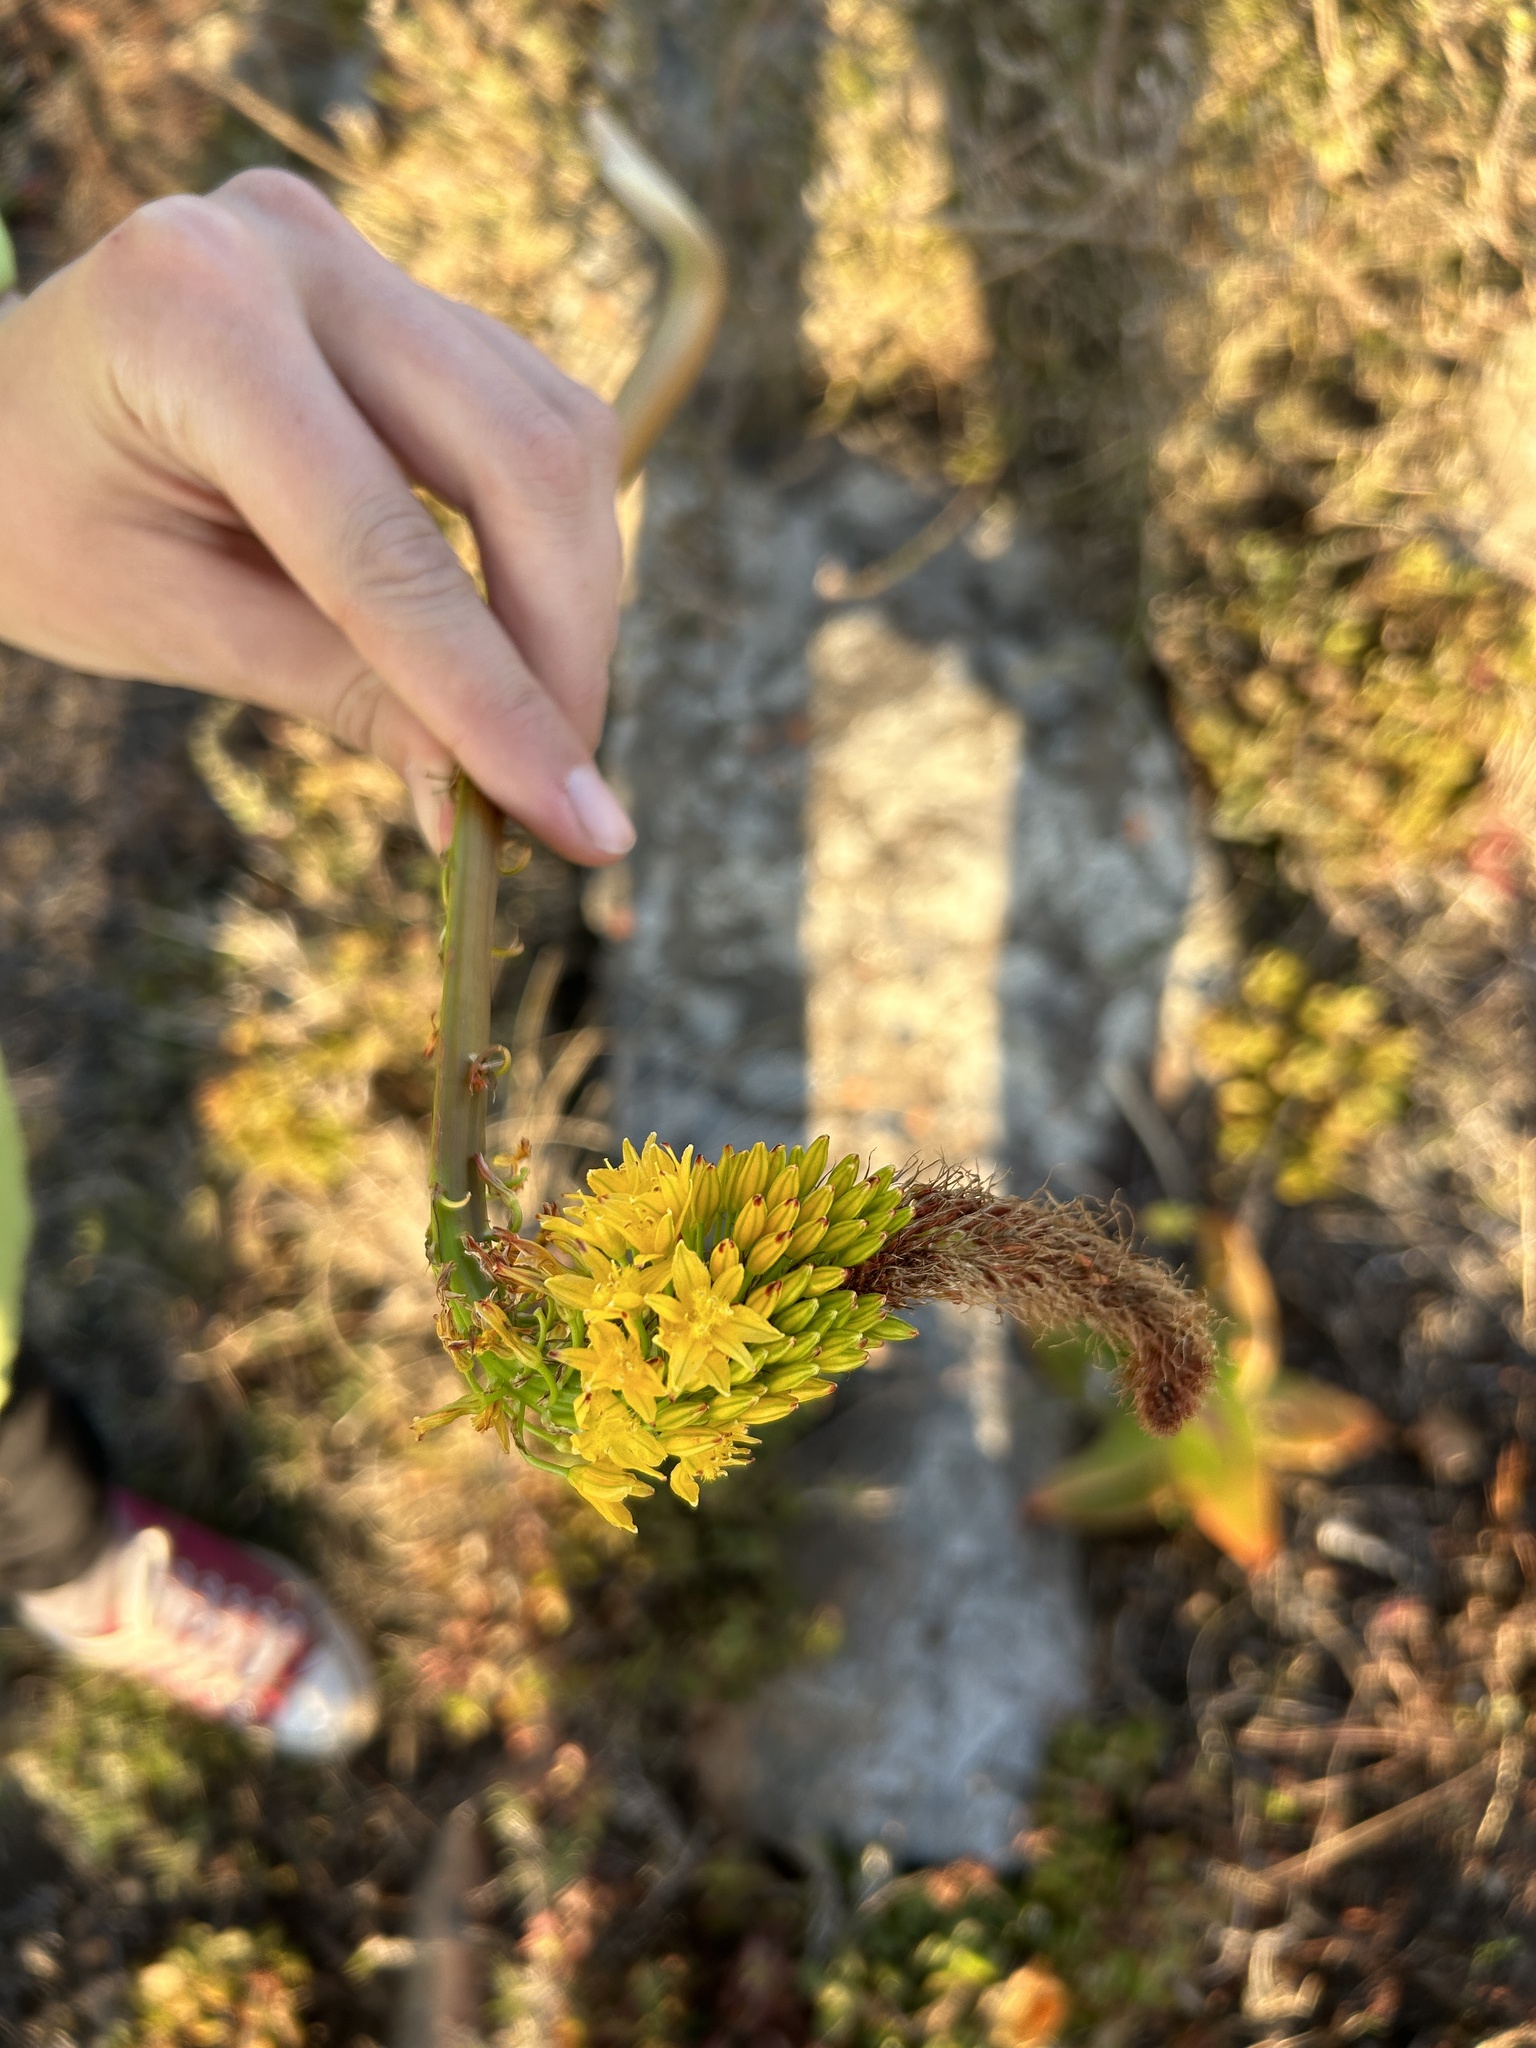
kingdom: Plantae
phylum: Tracheophyta
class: Liliopsida
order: Asparagales
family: Asphodelaceae
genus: Bulbine
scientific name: Bulbine latifolia
